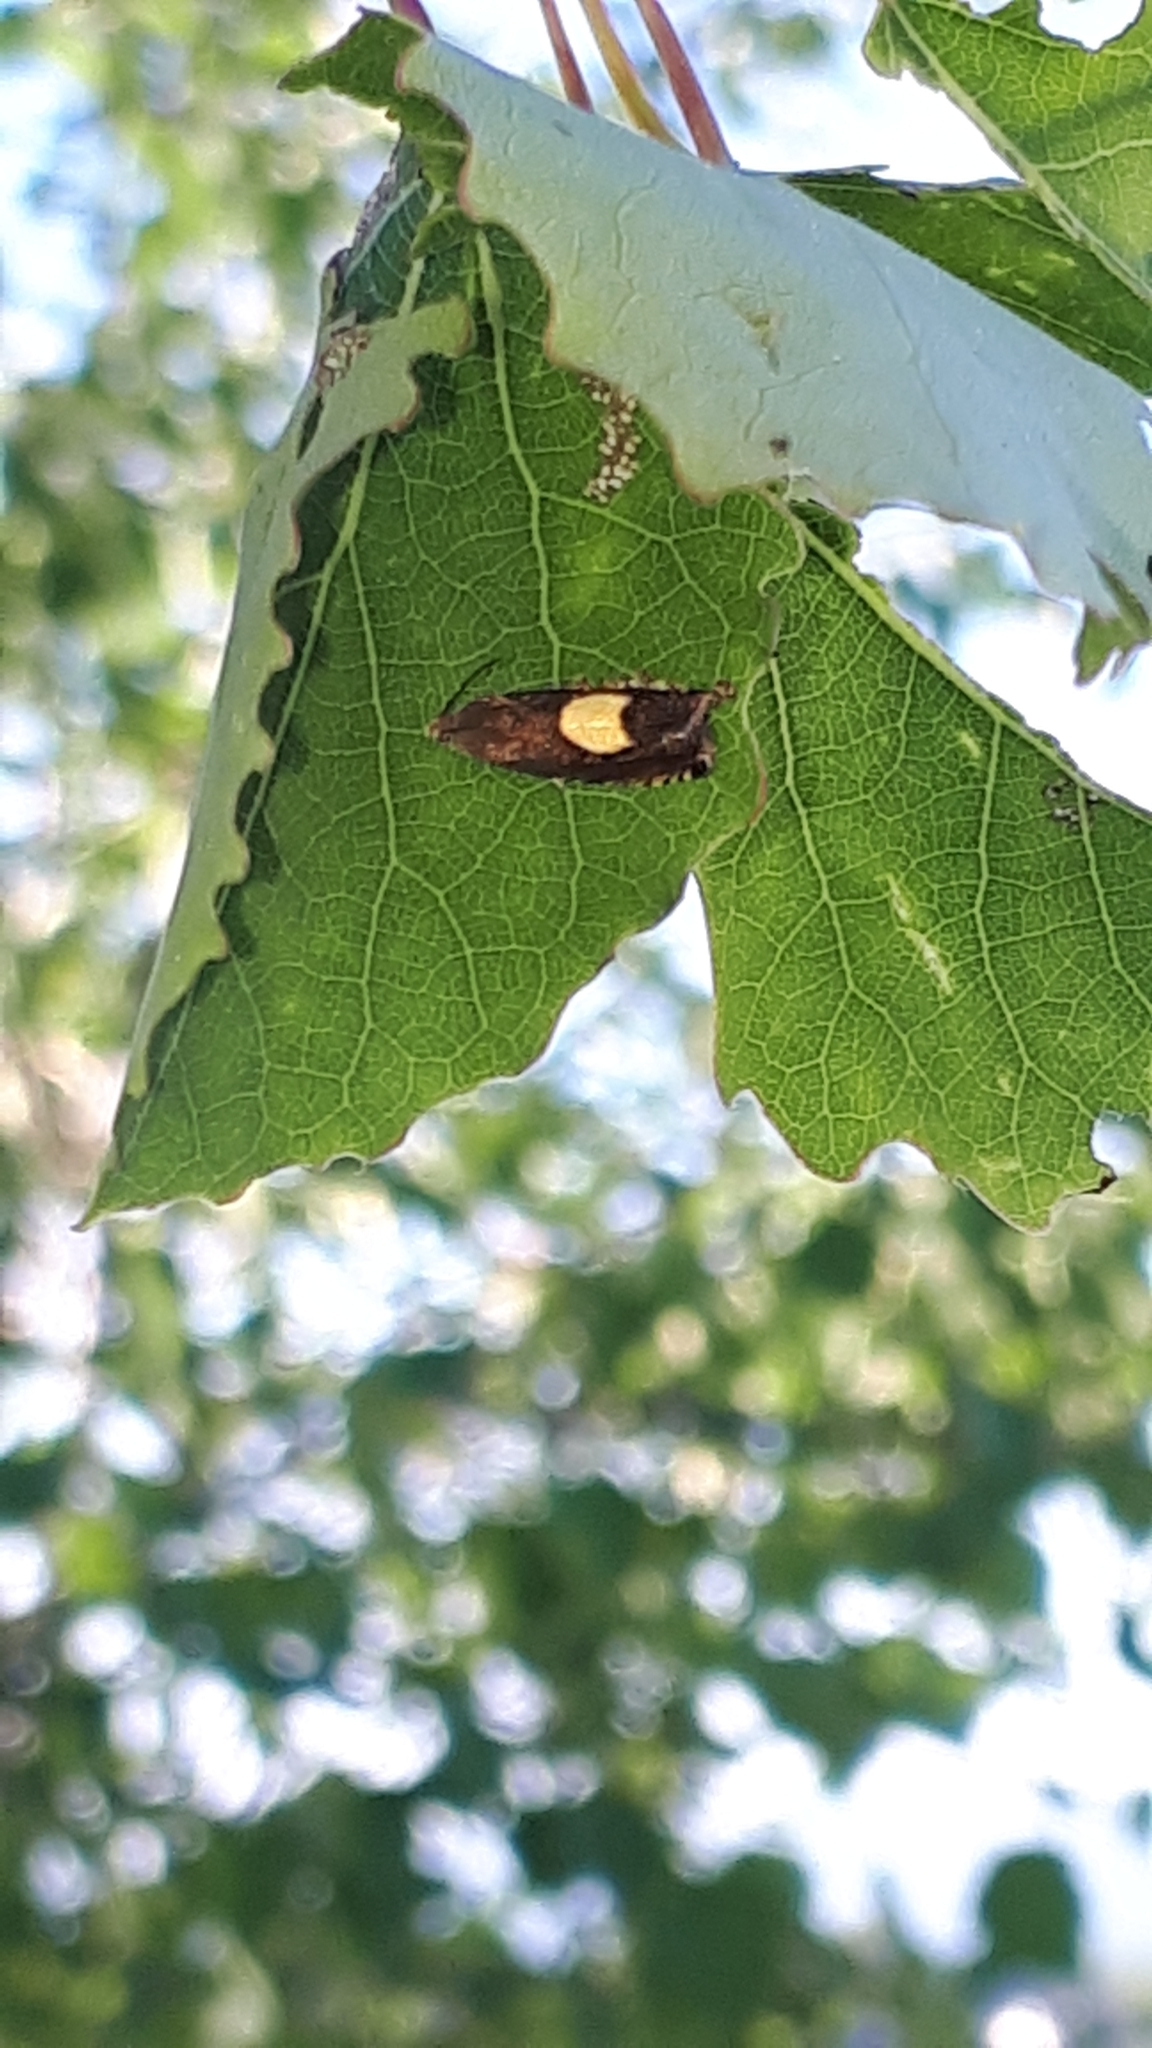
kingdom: Animalia
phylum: Arthropoda
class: Insecta
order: Lepidoptera
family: Tortricidae
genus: Pammene
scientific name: Pammene regiana
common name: Regal piercer
